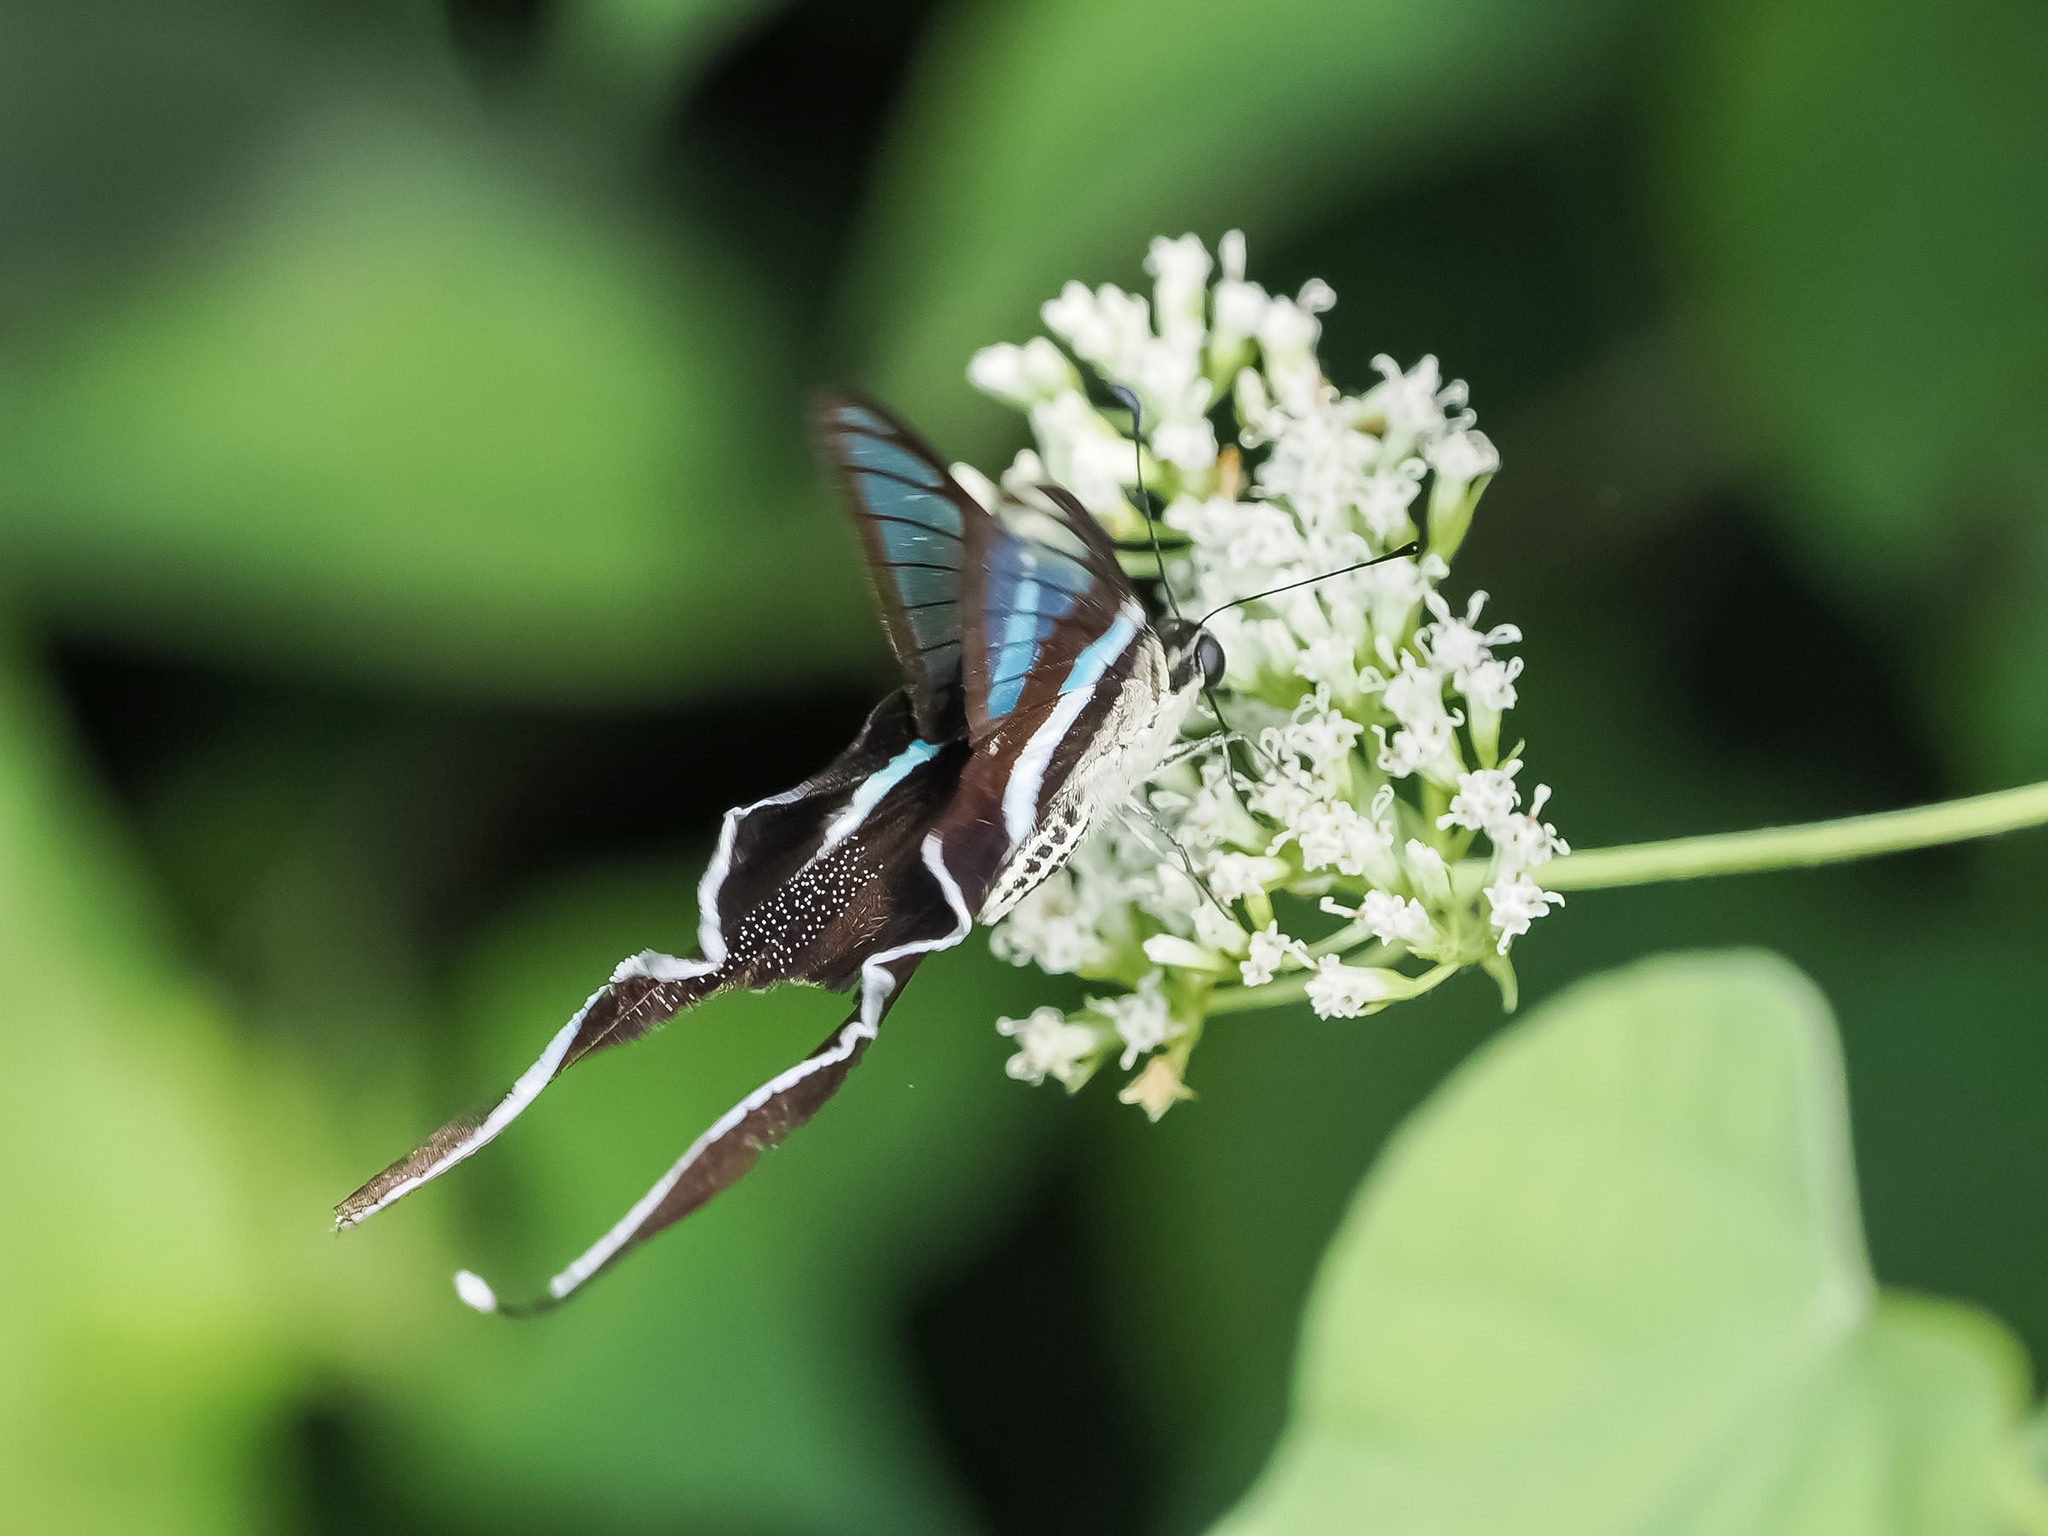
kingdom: Animalia
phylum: Arthropoda
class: Insecta
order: Lepidoptera
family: Papilionidae
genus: Lamproptera
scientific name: Lamproptera meges
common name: Green dragontail
